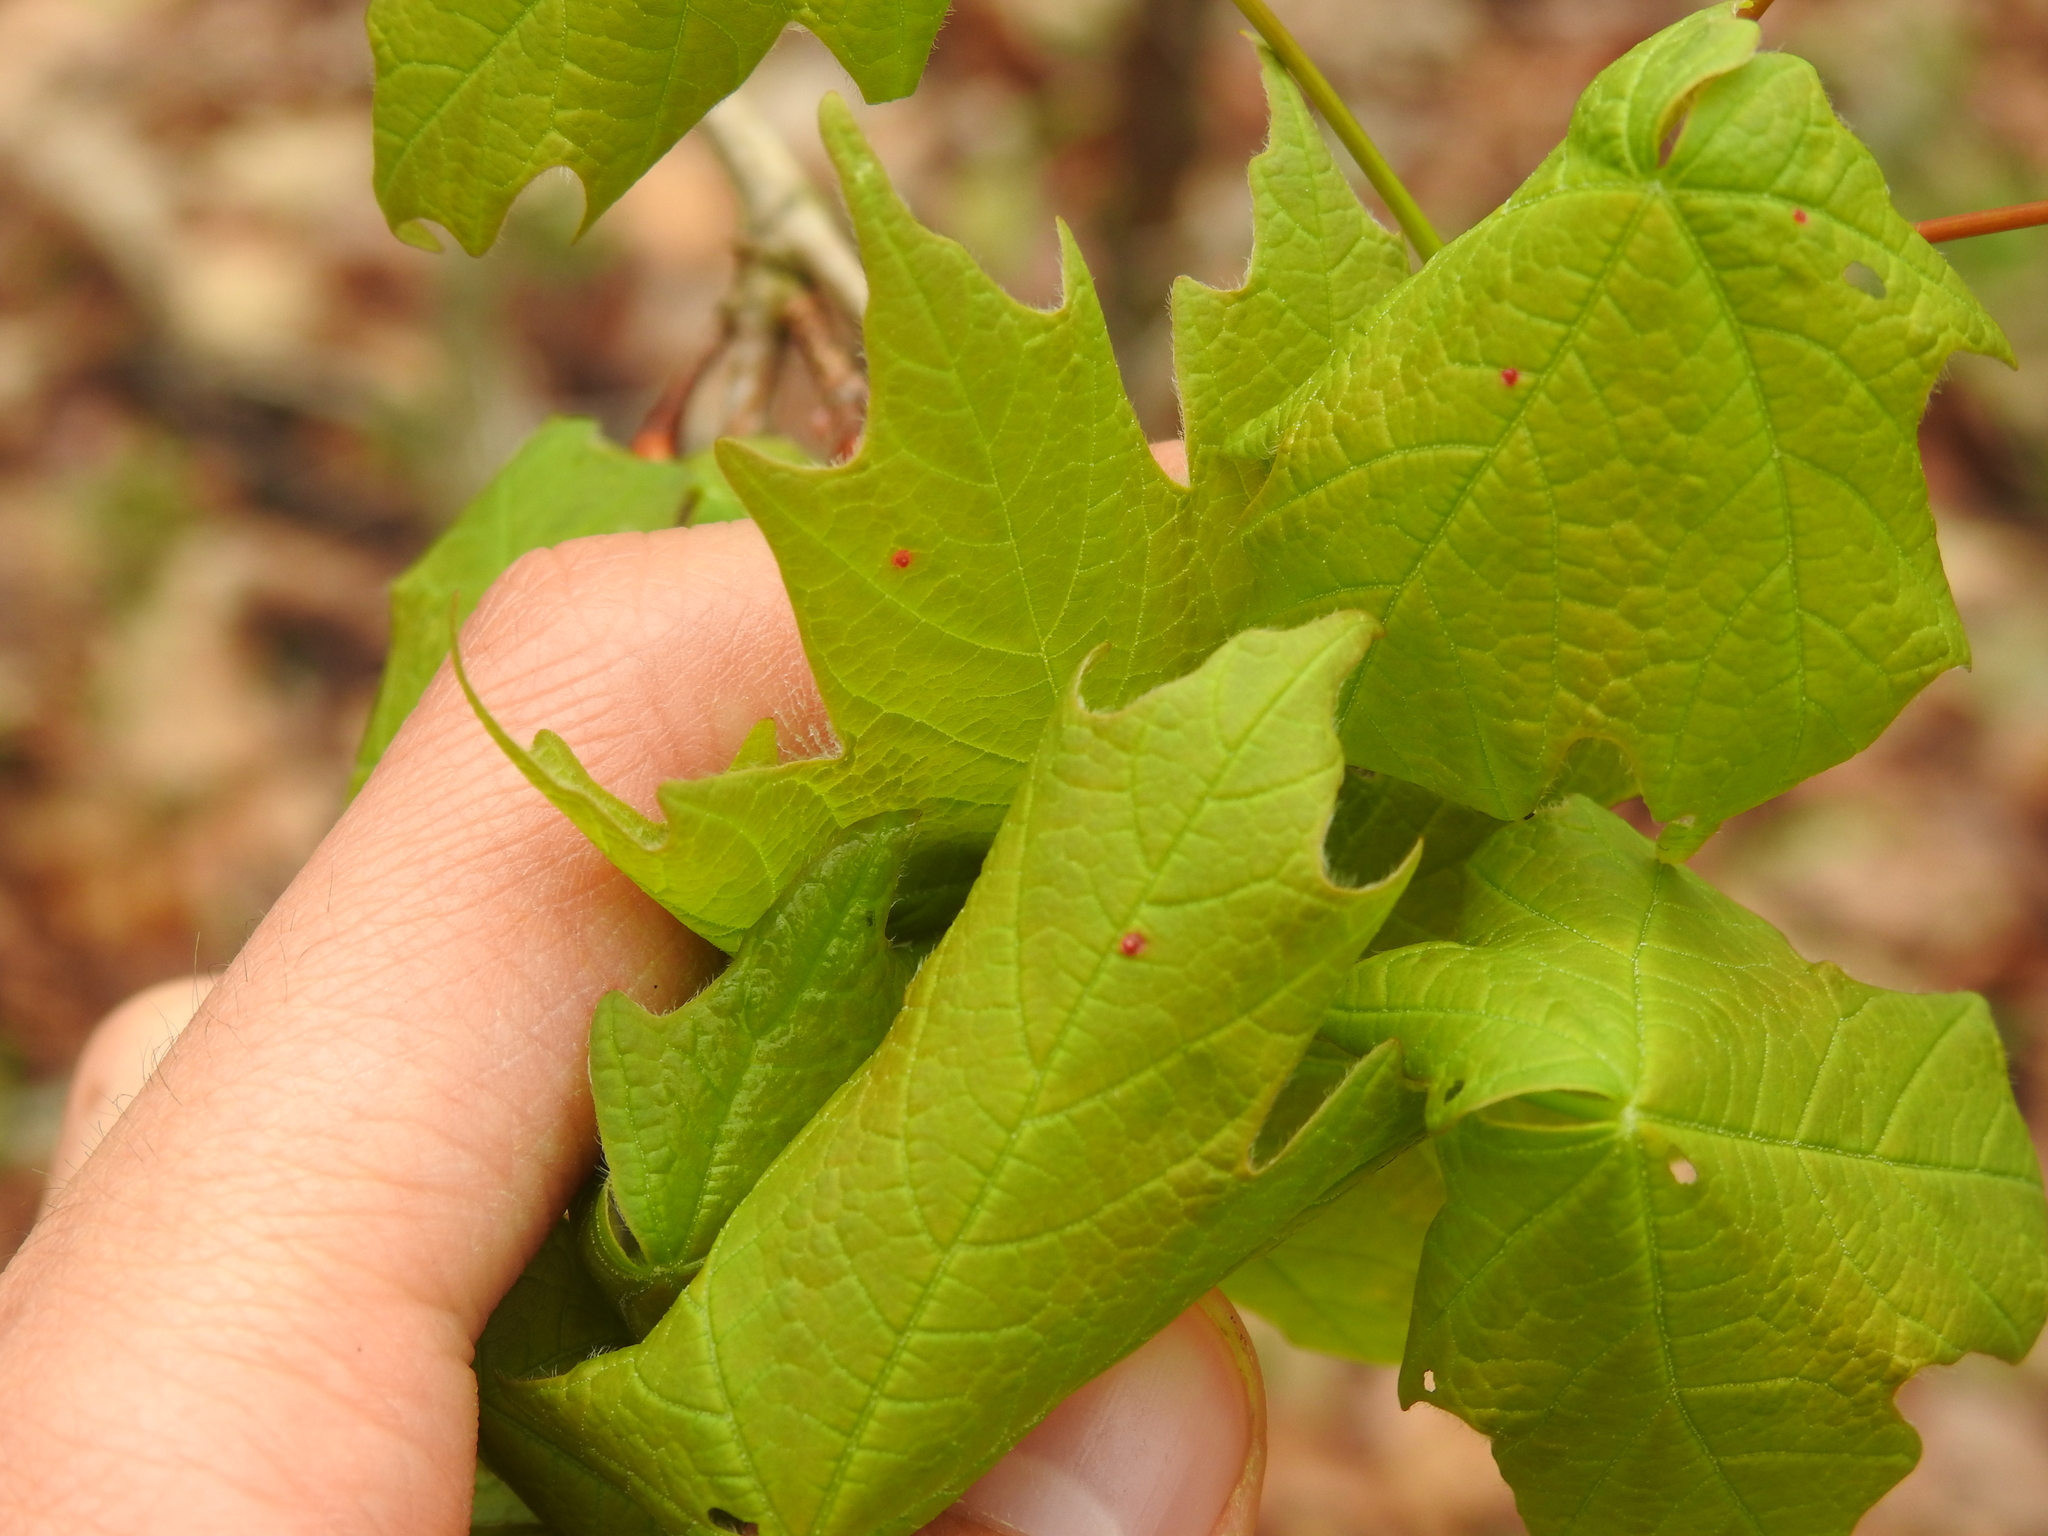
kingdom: Animalia
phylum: Arthropoda
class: Arachnida
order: Trombidiformes
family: Eriophyidae
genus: Vasates
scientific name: Vasates quadripedes
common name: Maple bladder gall mite
